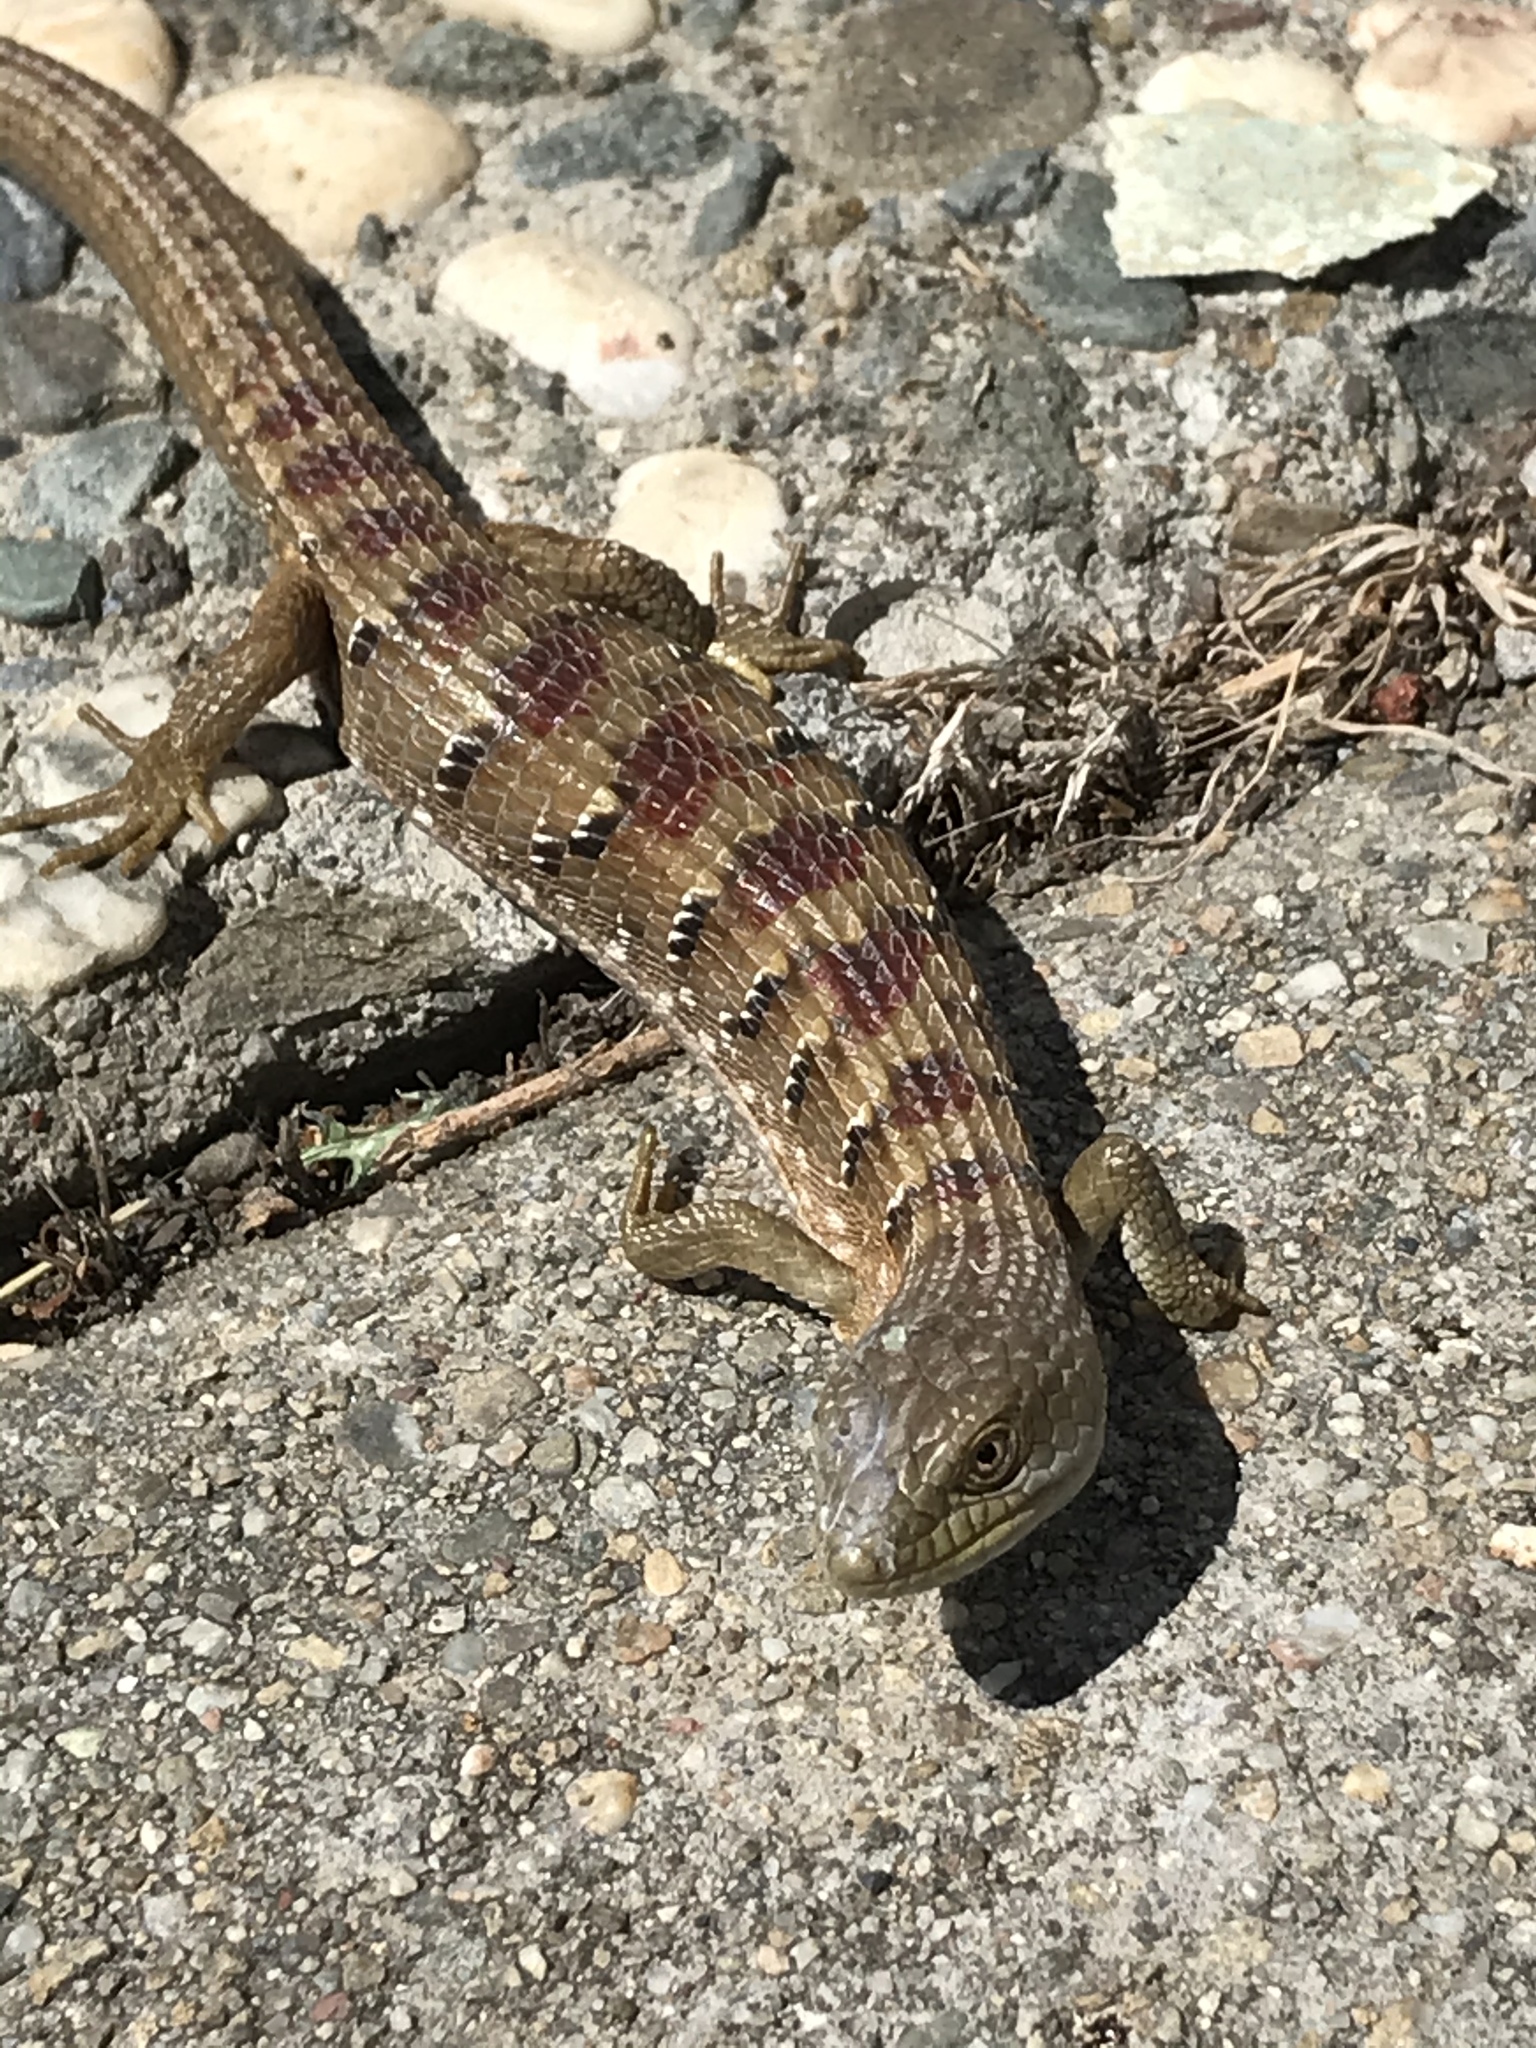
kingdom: Animalia
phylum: Chordata
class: Squamata
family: Anguidae
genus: Elgaria
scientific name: Elgaria multicarinata
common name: Southern alligator lizard
